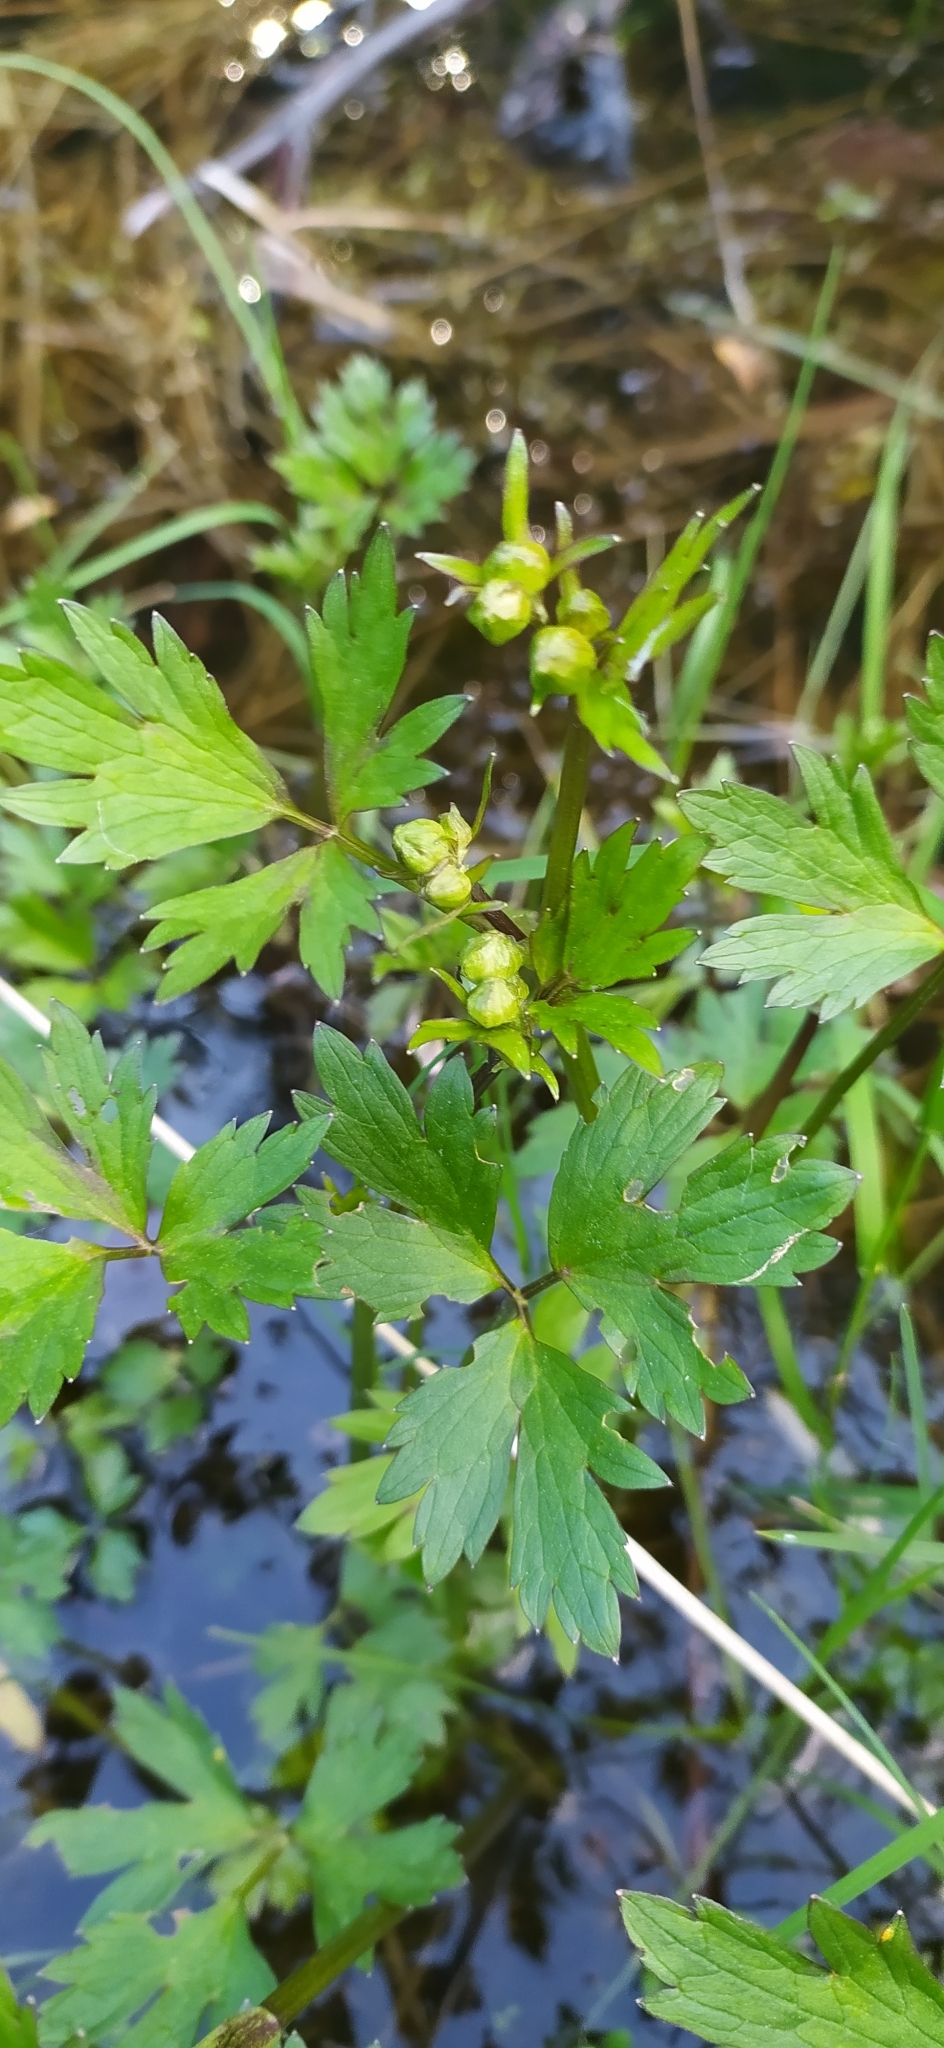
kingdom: Plantae
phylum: Tracheophyta
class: Magnoliopsida
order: Ranunculales
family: Ranunculaceae
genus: Ranunculus
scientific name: Ranunculus repens
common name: Creeping buttercup
